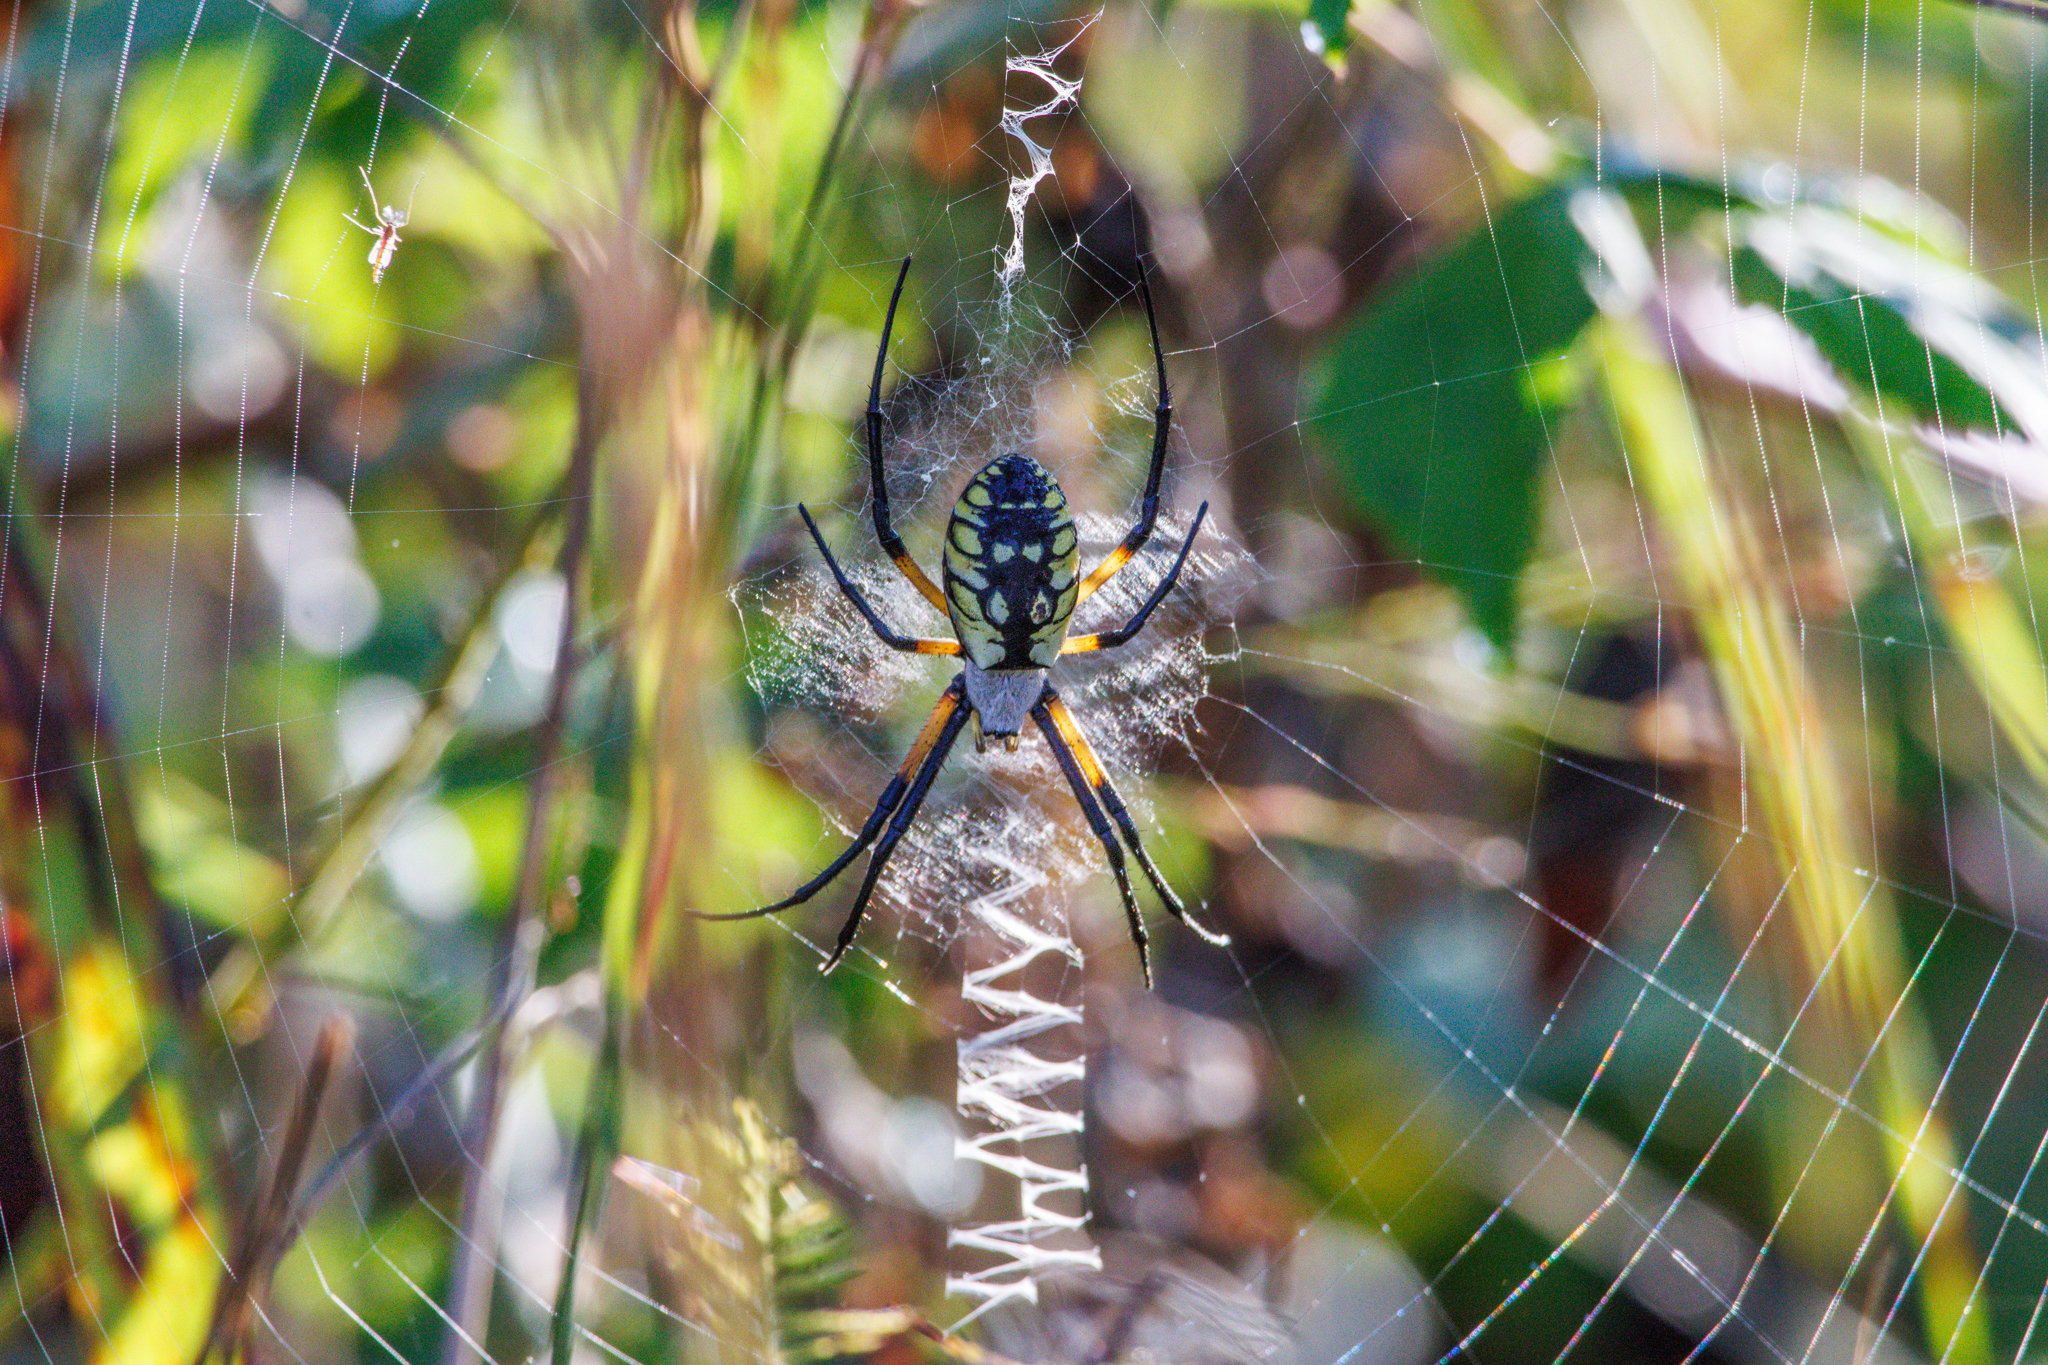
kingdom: Animalia
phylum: Arthropoda
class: Arachnida
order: Araneae
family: Araneidae
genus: Argiope
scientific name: Argiope aurantia
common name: Orb weavers
